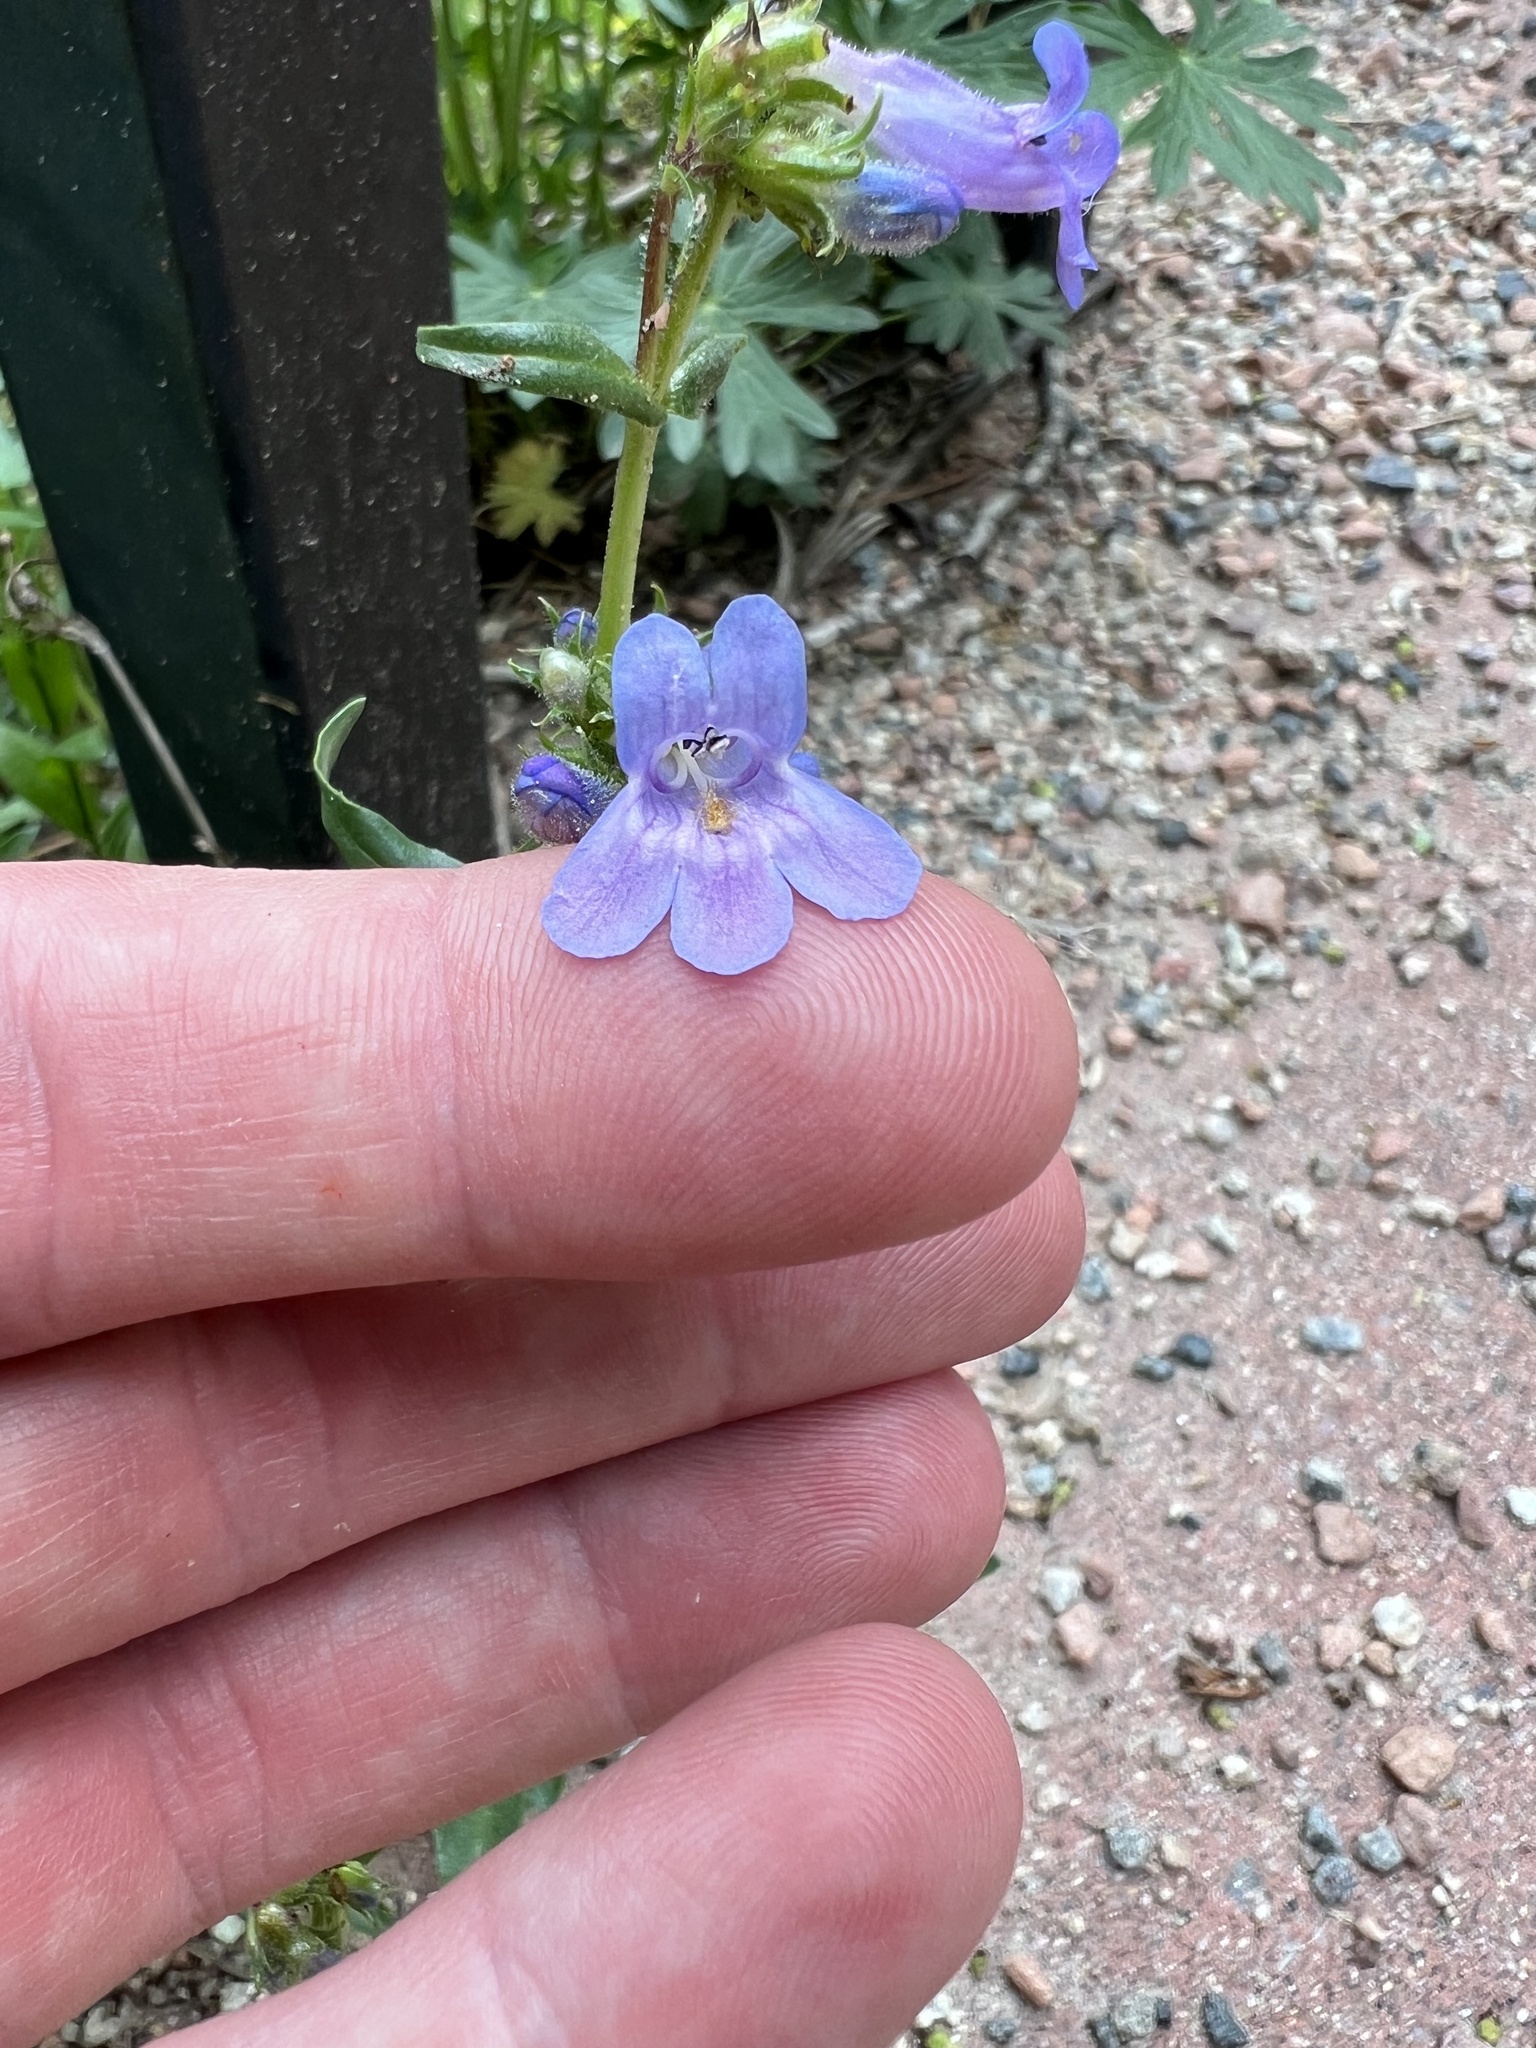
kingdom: Plantae
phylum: Tracheophyta
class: Magnoliopsida
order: Lamiales
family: Plantaginaceae
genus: Penstemon
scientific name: Penstemon virens
